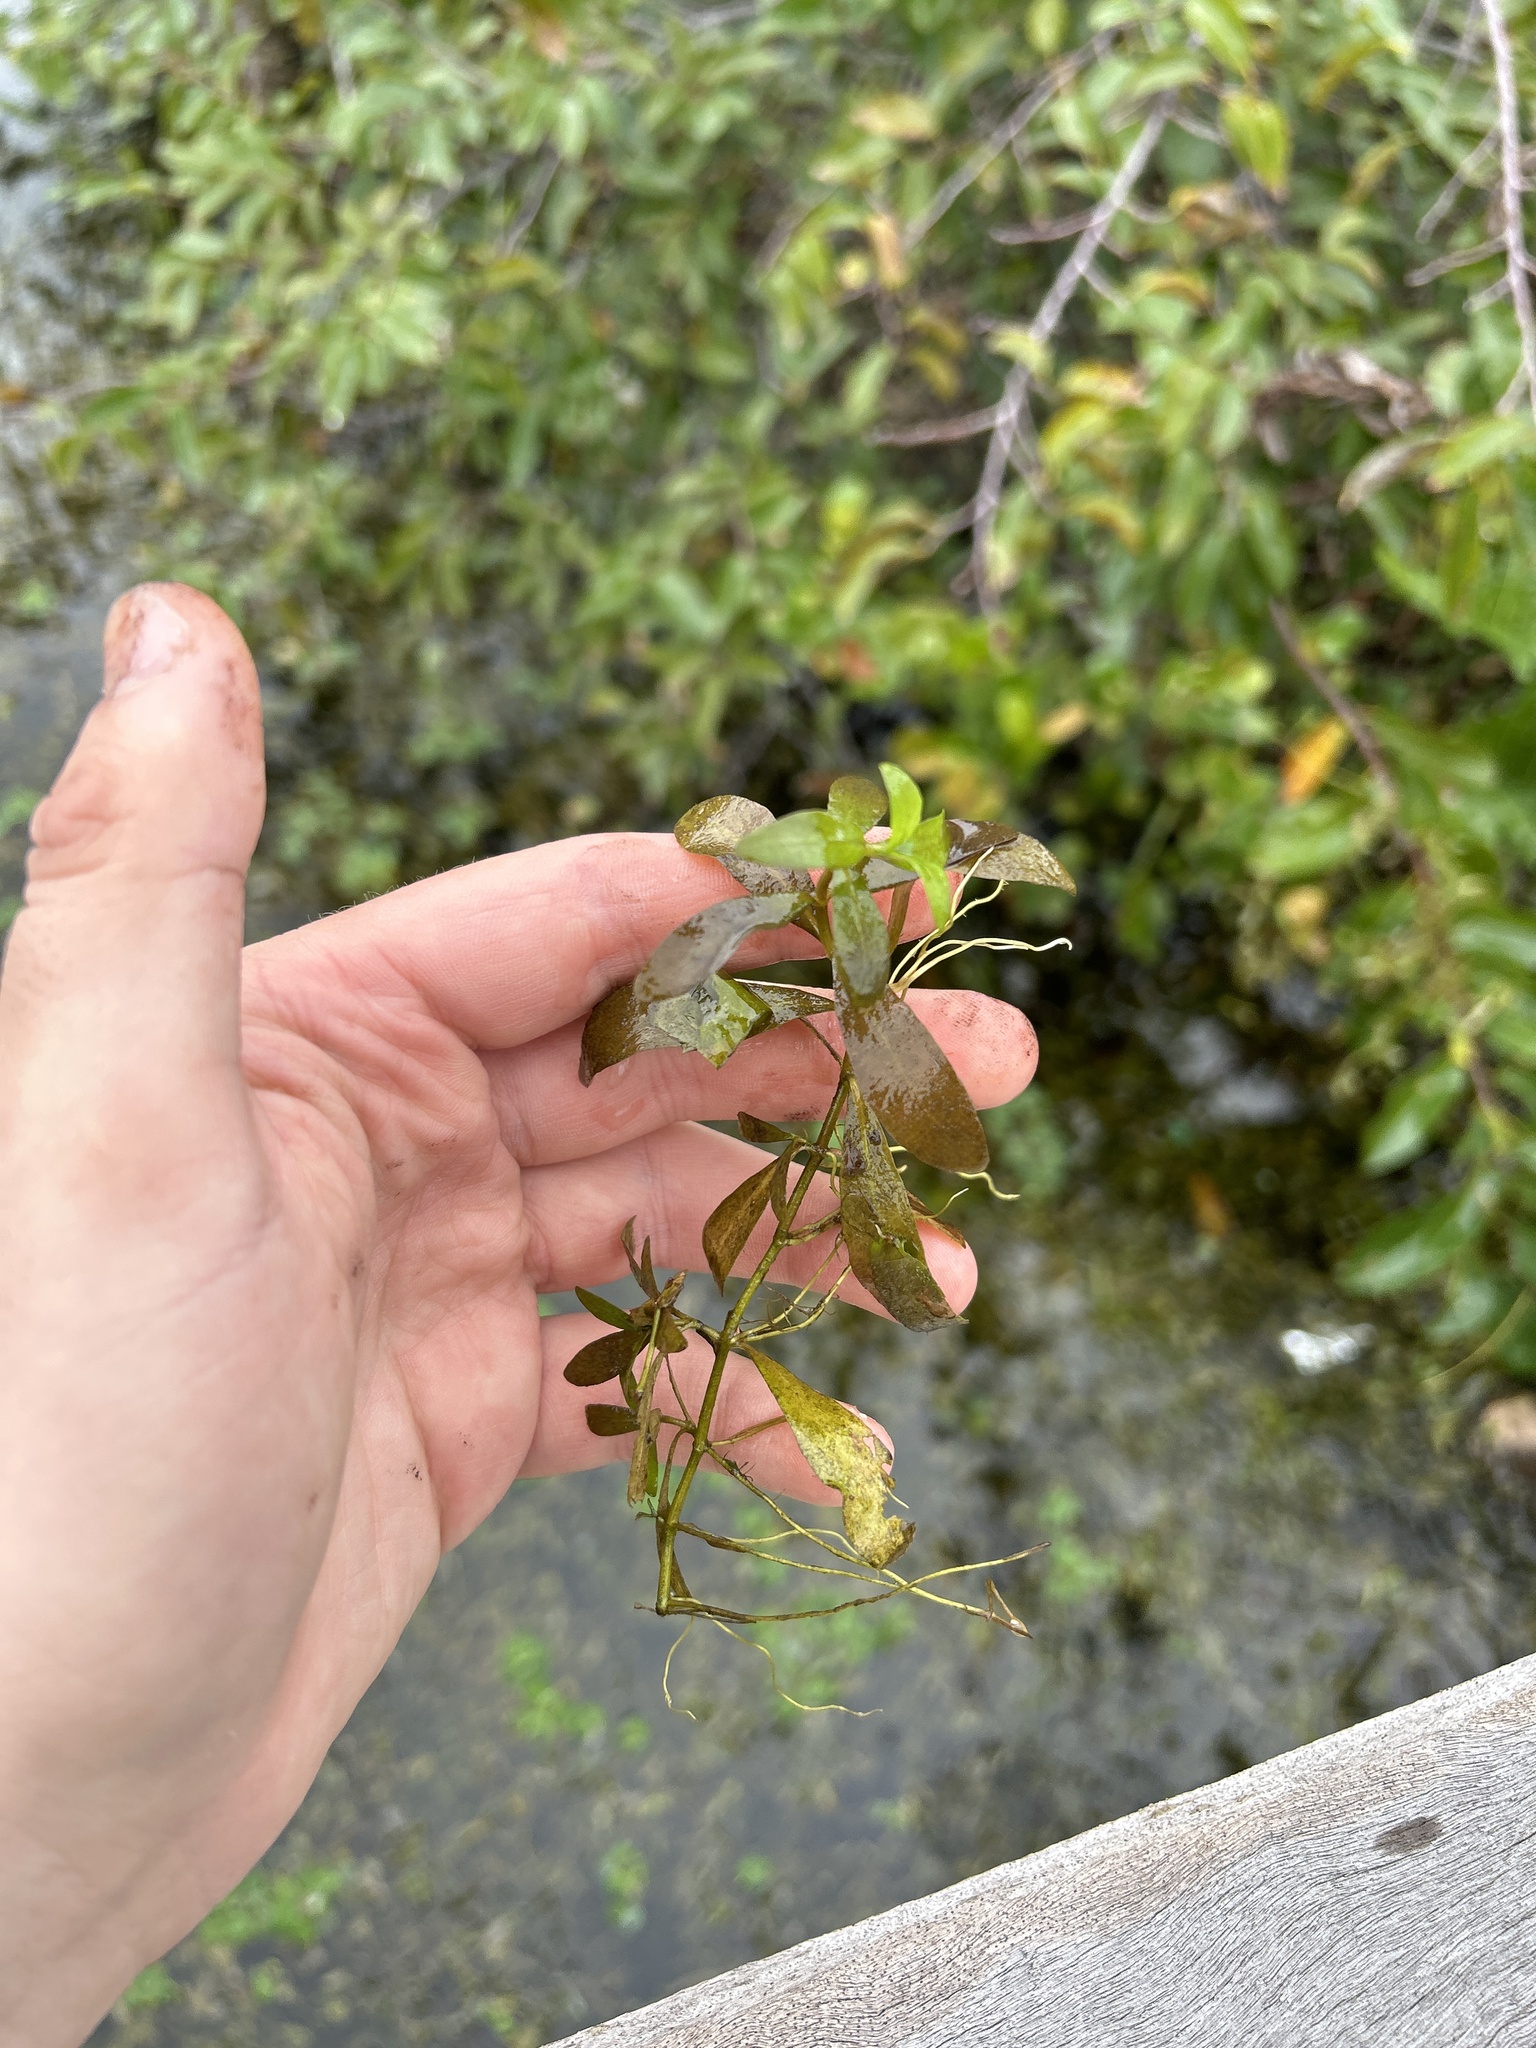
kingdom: Plantae
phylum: Tracheophyta
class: Magnoliopsida
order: Lamiales
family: Acanthaceae
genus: Hygrophila
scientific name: Hygrophila polysperma
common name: Indian swampweed
